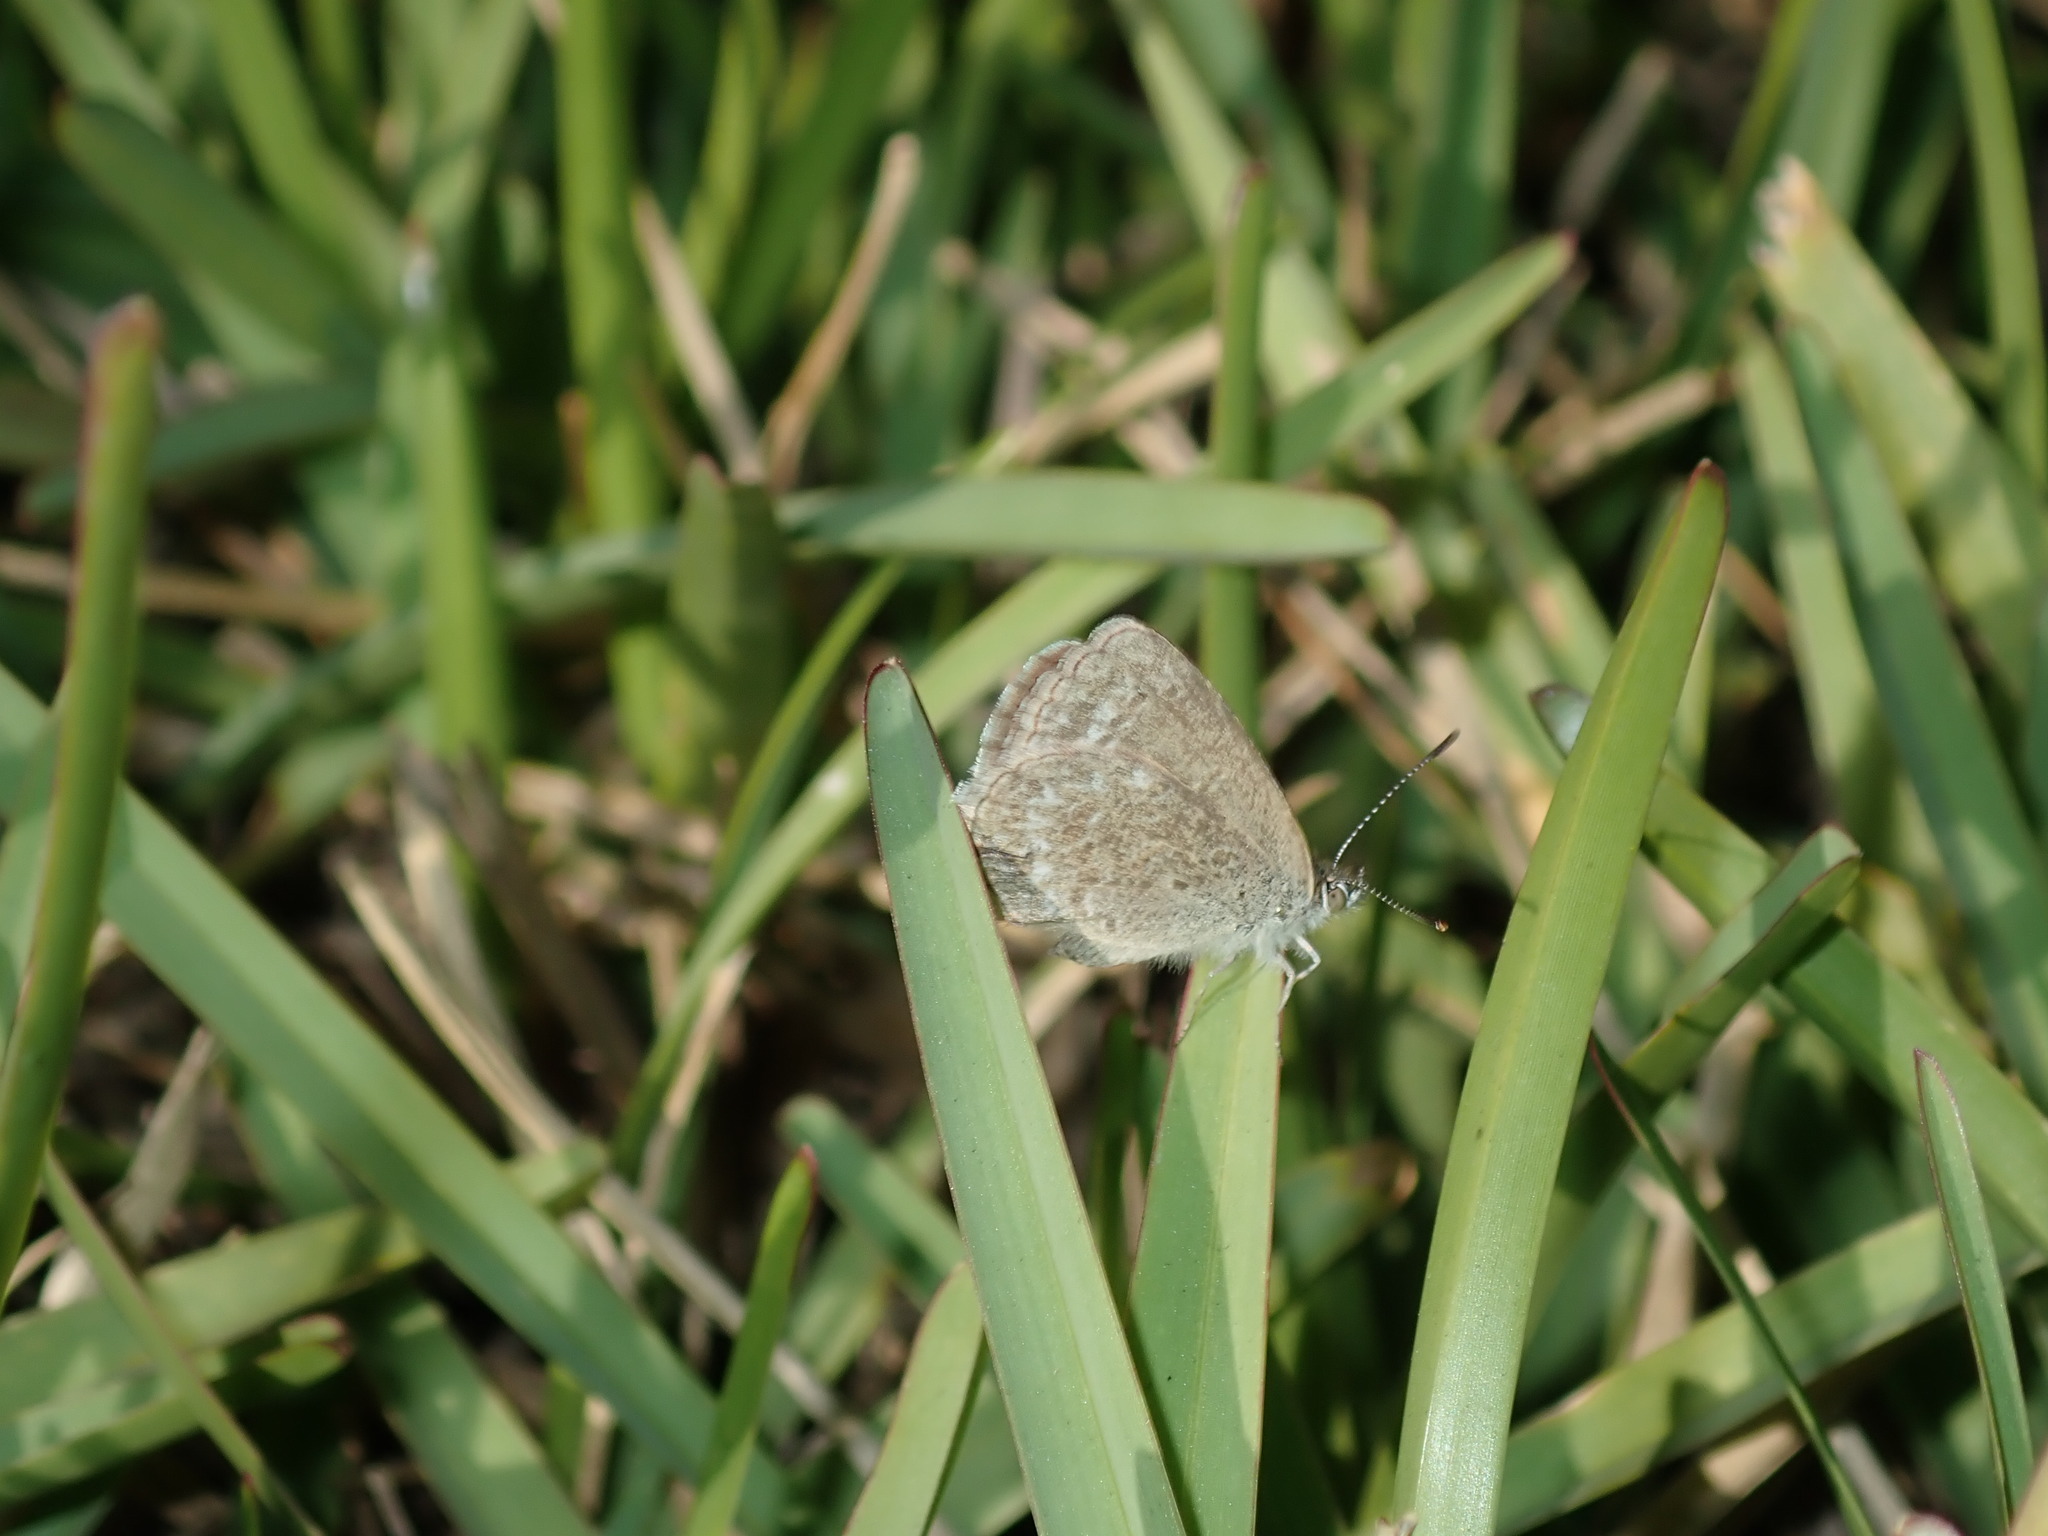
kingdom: Animalia
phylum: Arthropoda
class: Insecta
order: Lepidoptera
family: Lycaenidae
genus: Zizina
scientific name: Zizina labradus
